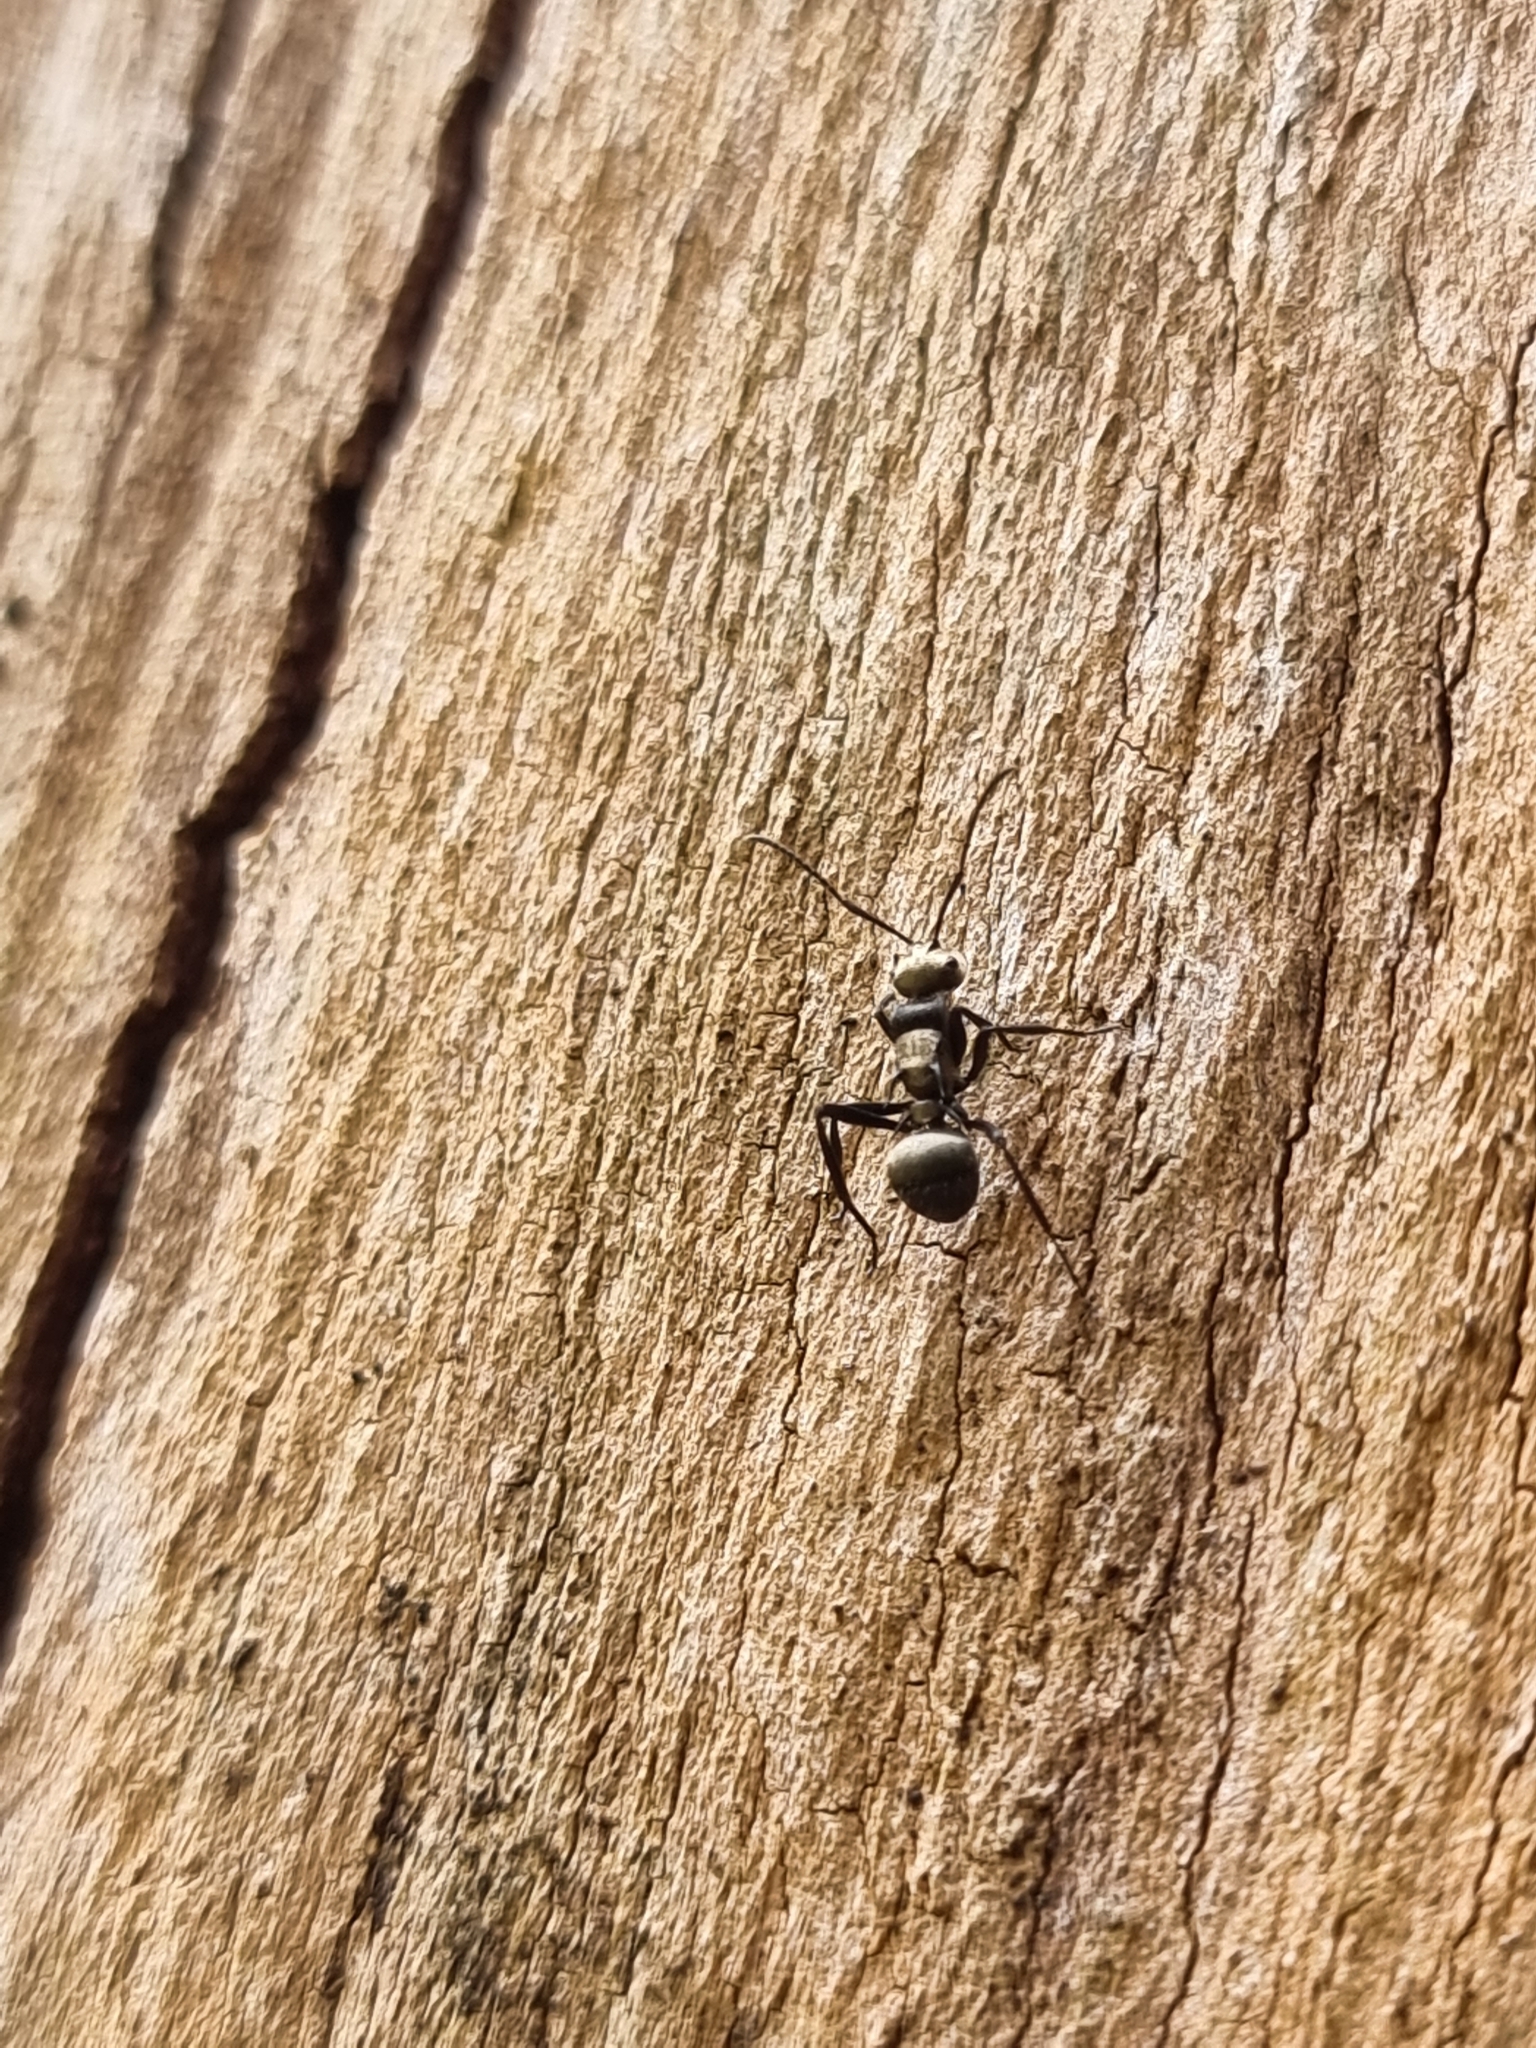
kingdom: Animalia
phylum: Arthropoda
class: Insecta
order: Hymenoptera
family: Formicidae
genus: Polyrhachis
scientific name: Polyrhachis daemeli
